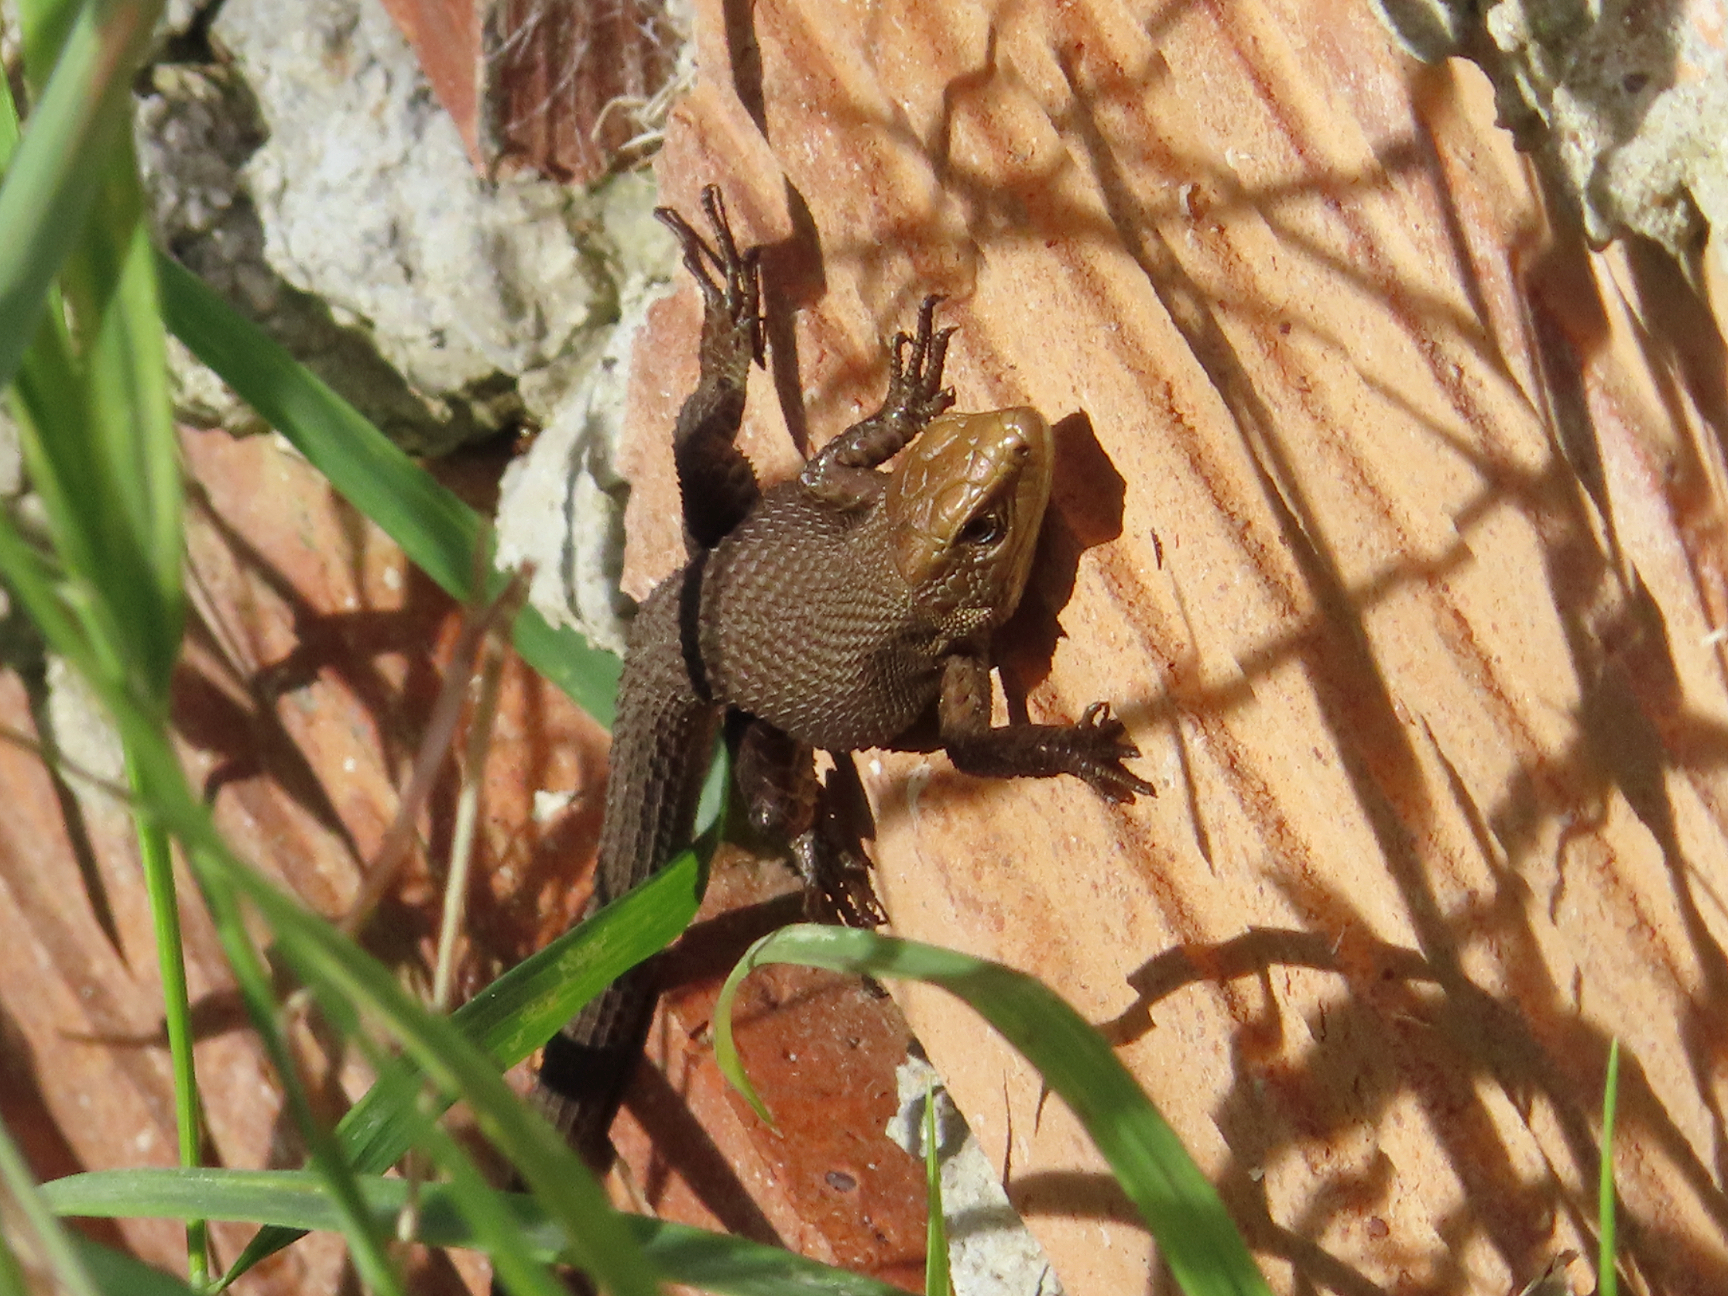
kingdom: Animalia
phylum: Chordata
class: Squamata
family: Lacertidae
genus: Algyroides
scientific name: Algyroides moreoticus
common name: Greek algyroides
